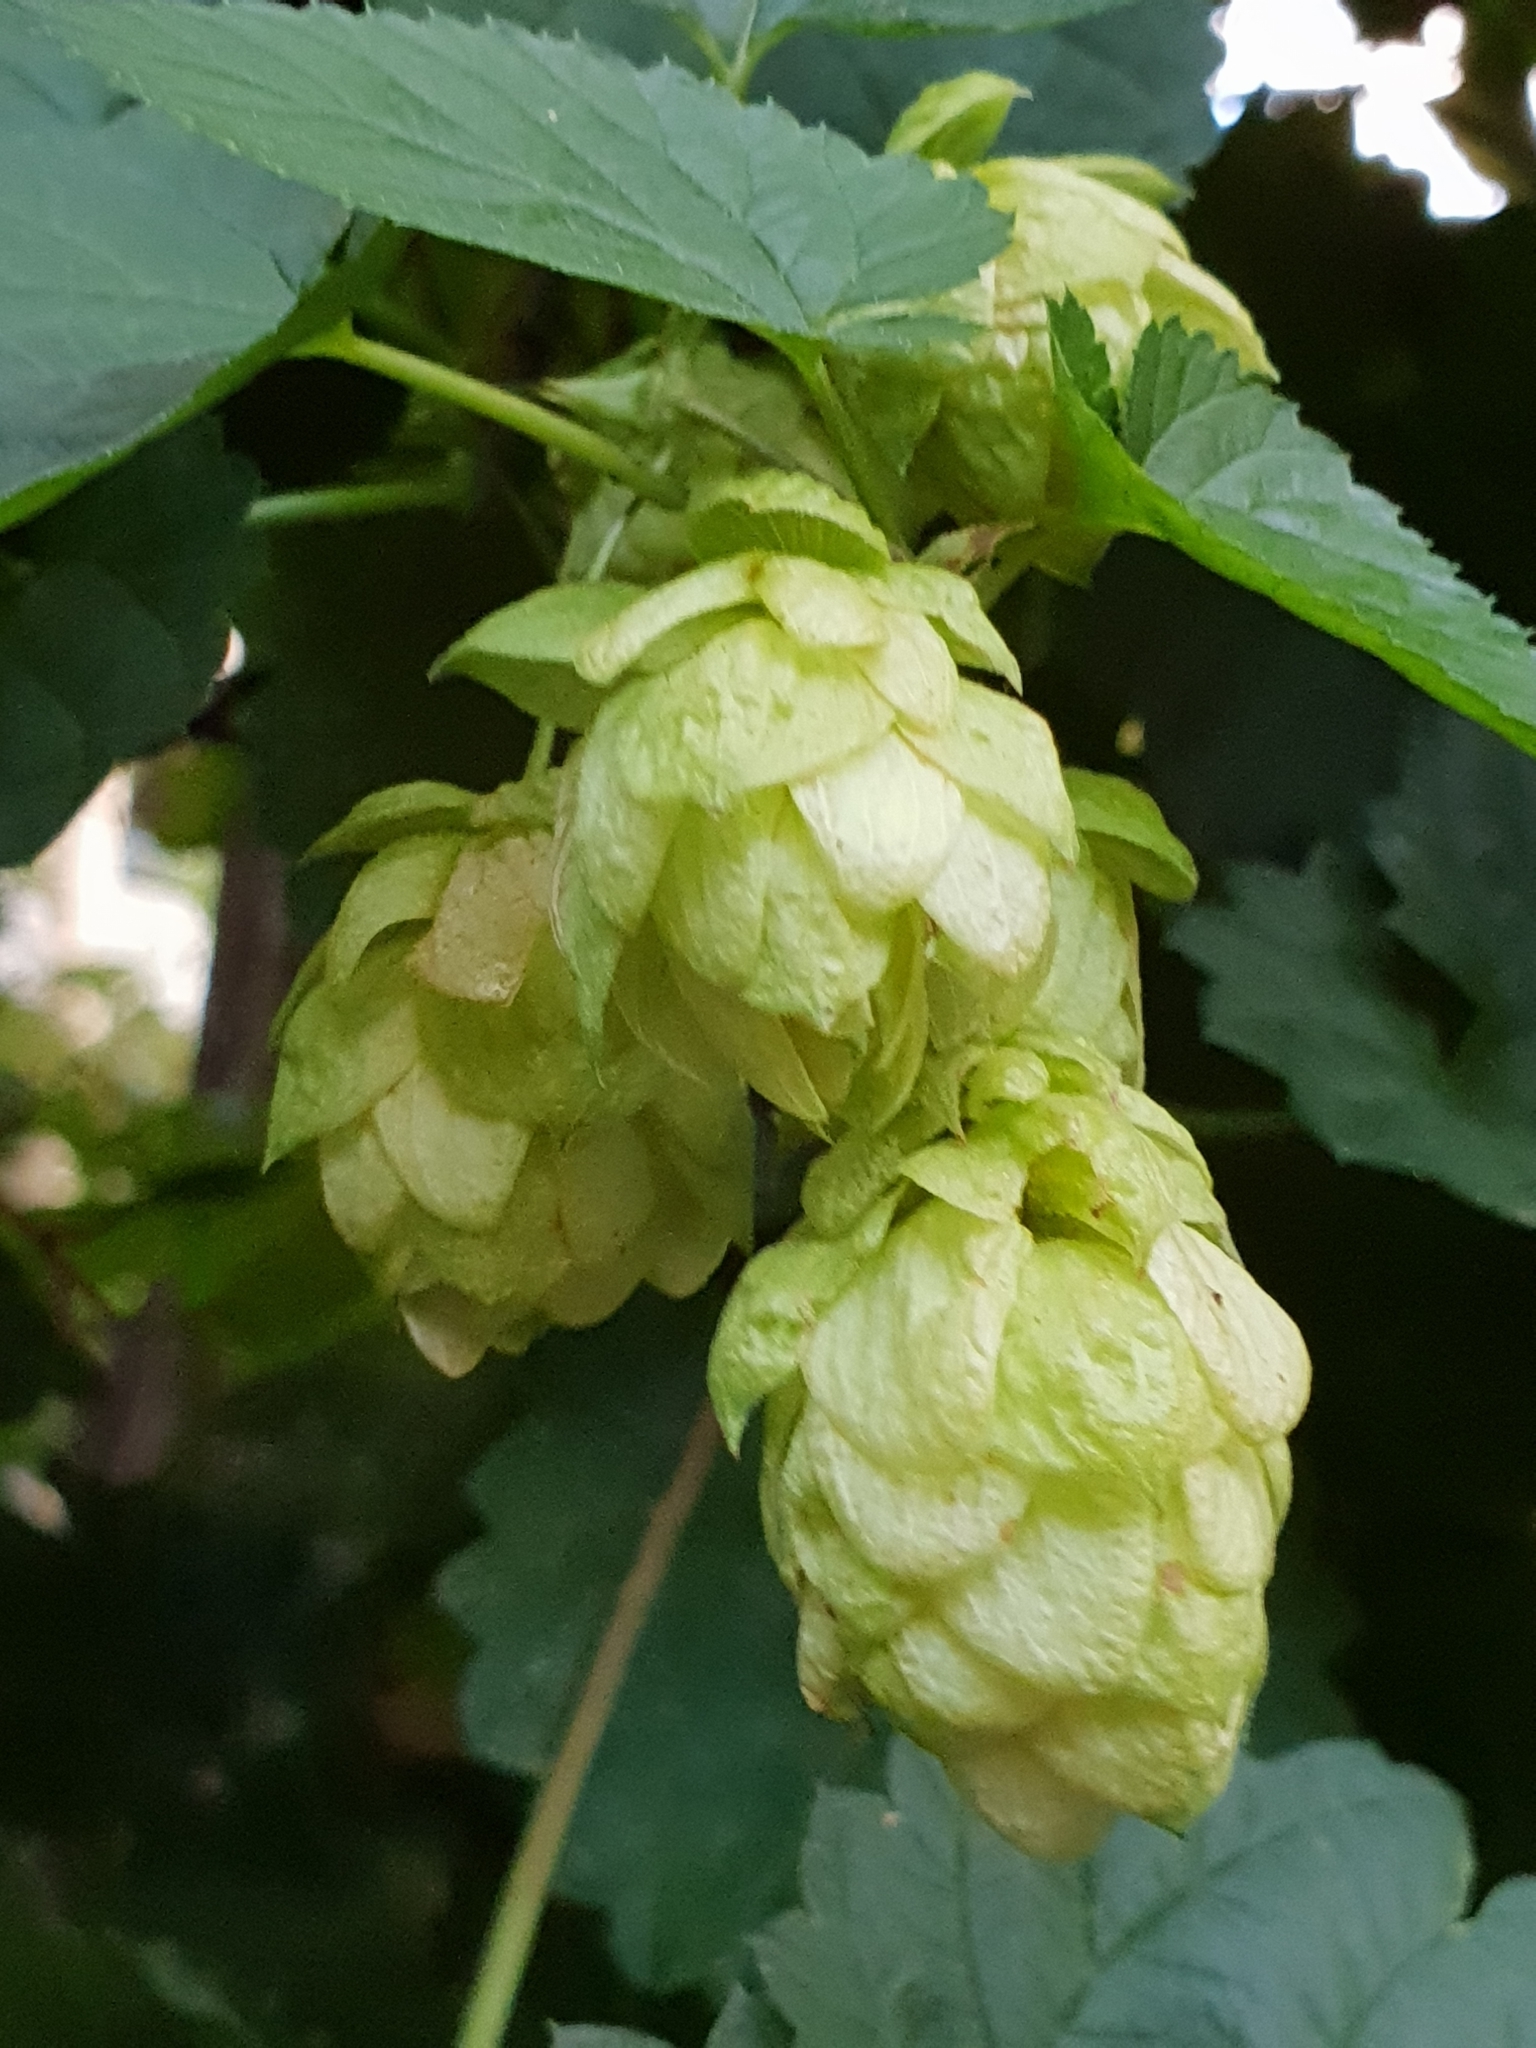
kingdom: Plantae
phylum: Tracheophyta
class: Magnoliopsida
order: Rosales
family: Cannabaceae
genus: Humulus
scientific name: Humulus lupulus
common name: Hop
